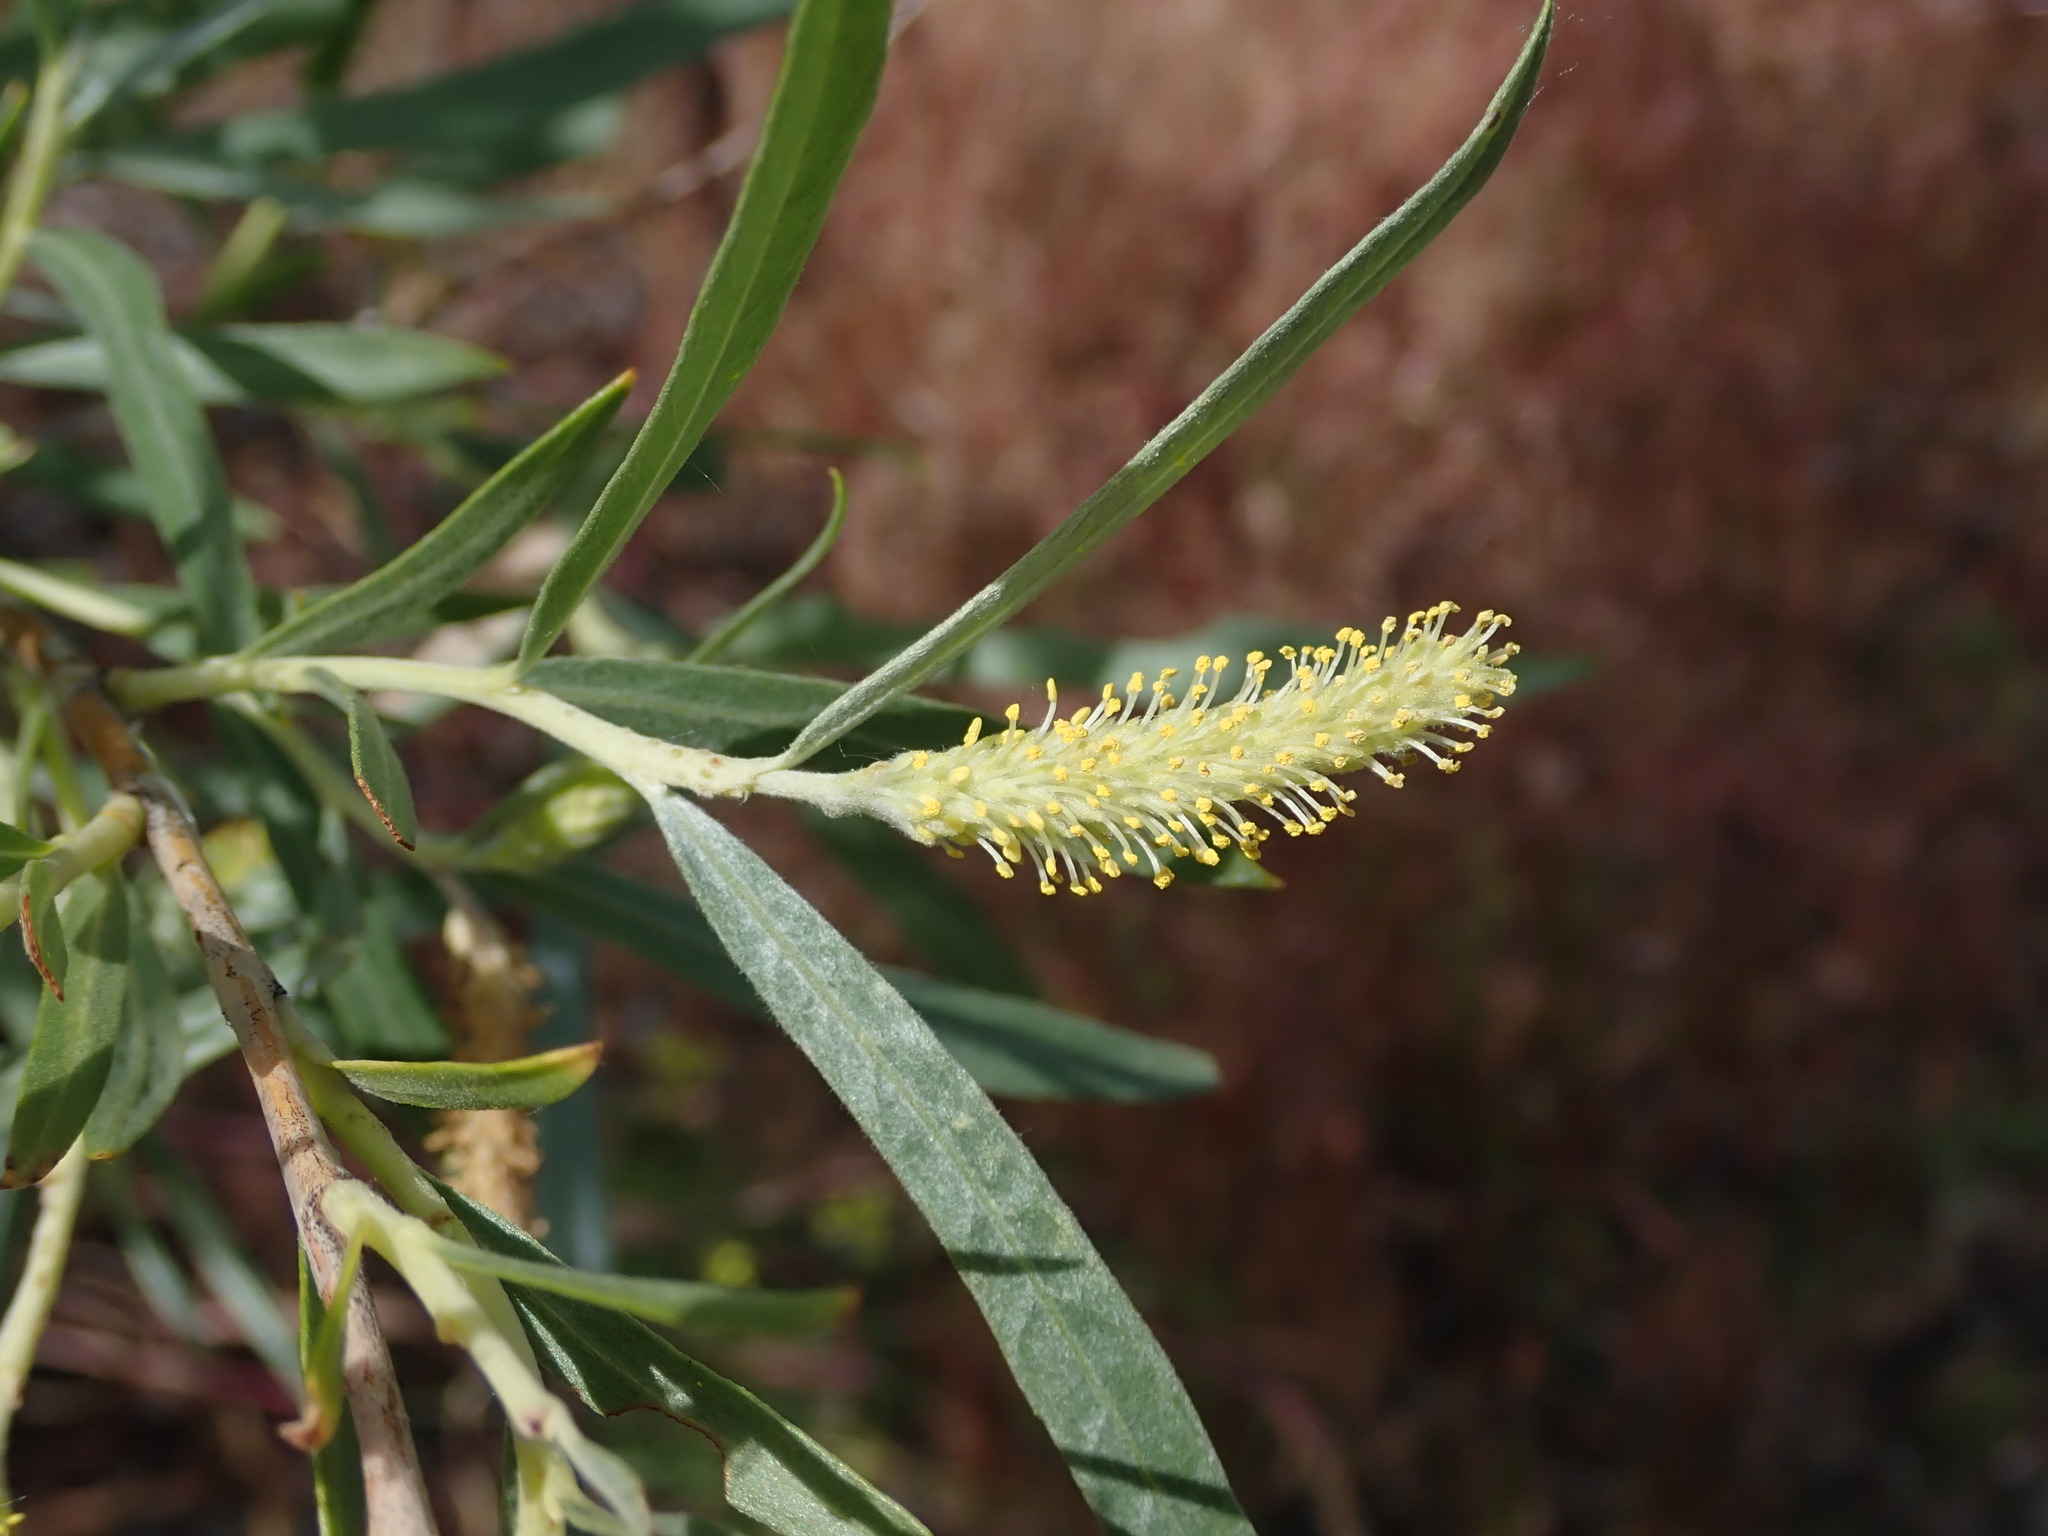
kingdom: Plantae
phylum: Tracheophyta
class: Magnoliopsida
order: Malpighiales
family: Salicaceae
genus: Salix
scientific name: Salix exigua
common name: Coyote willow
